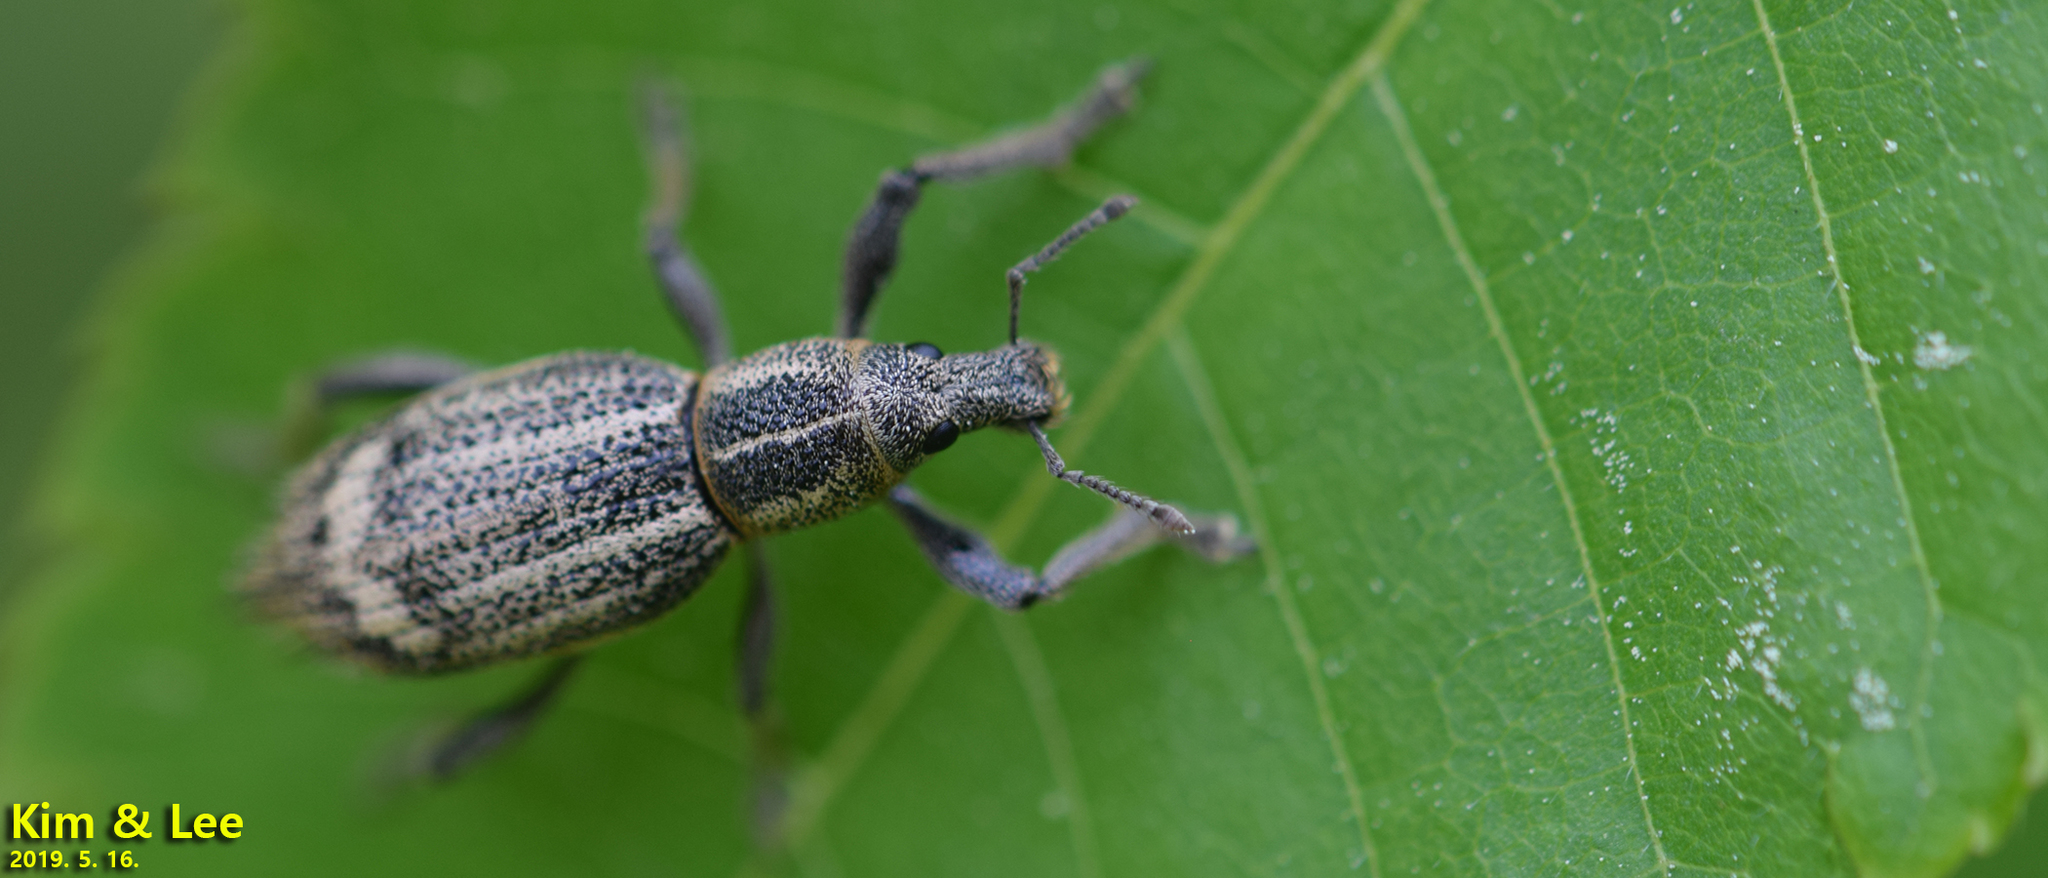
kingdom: Animalia
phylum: Arthropoda
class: Insecta
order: Coleoptera
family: Curculionidae
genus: Enaptorhinus
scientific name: Enaptorhinus granulatus
